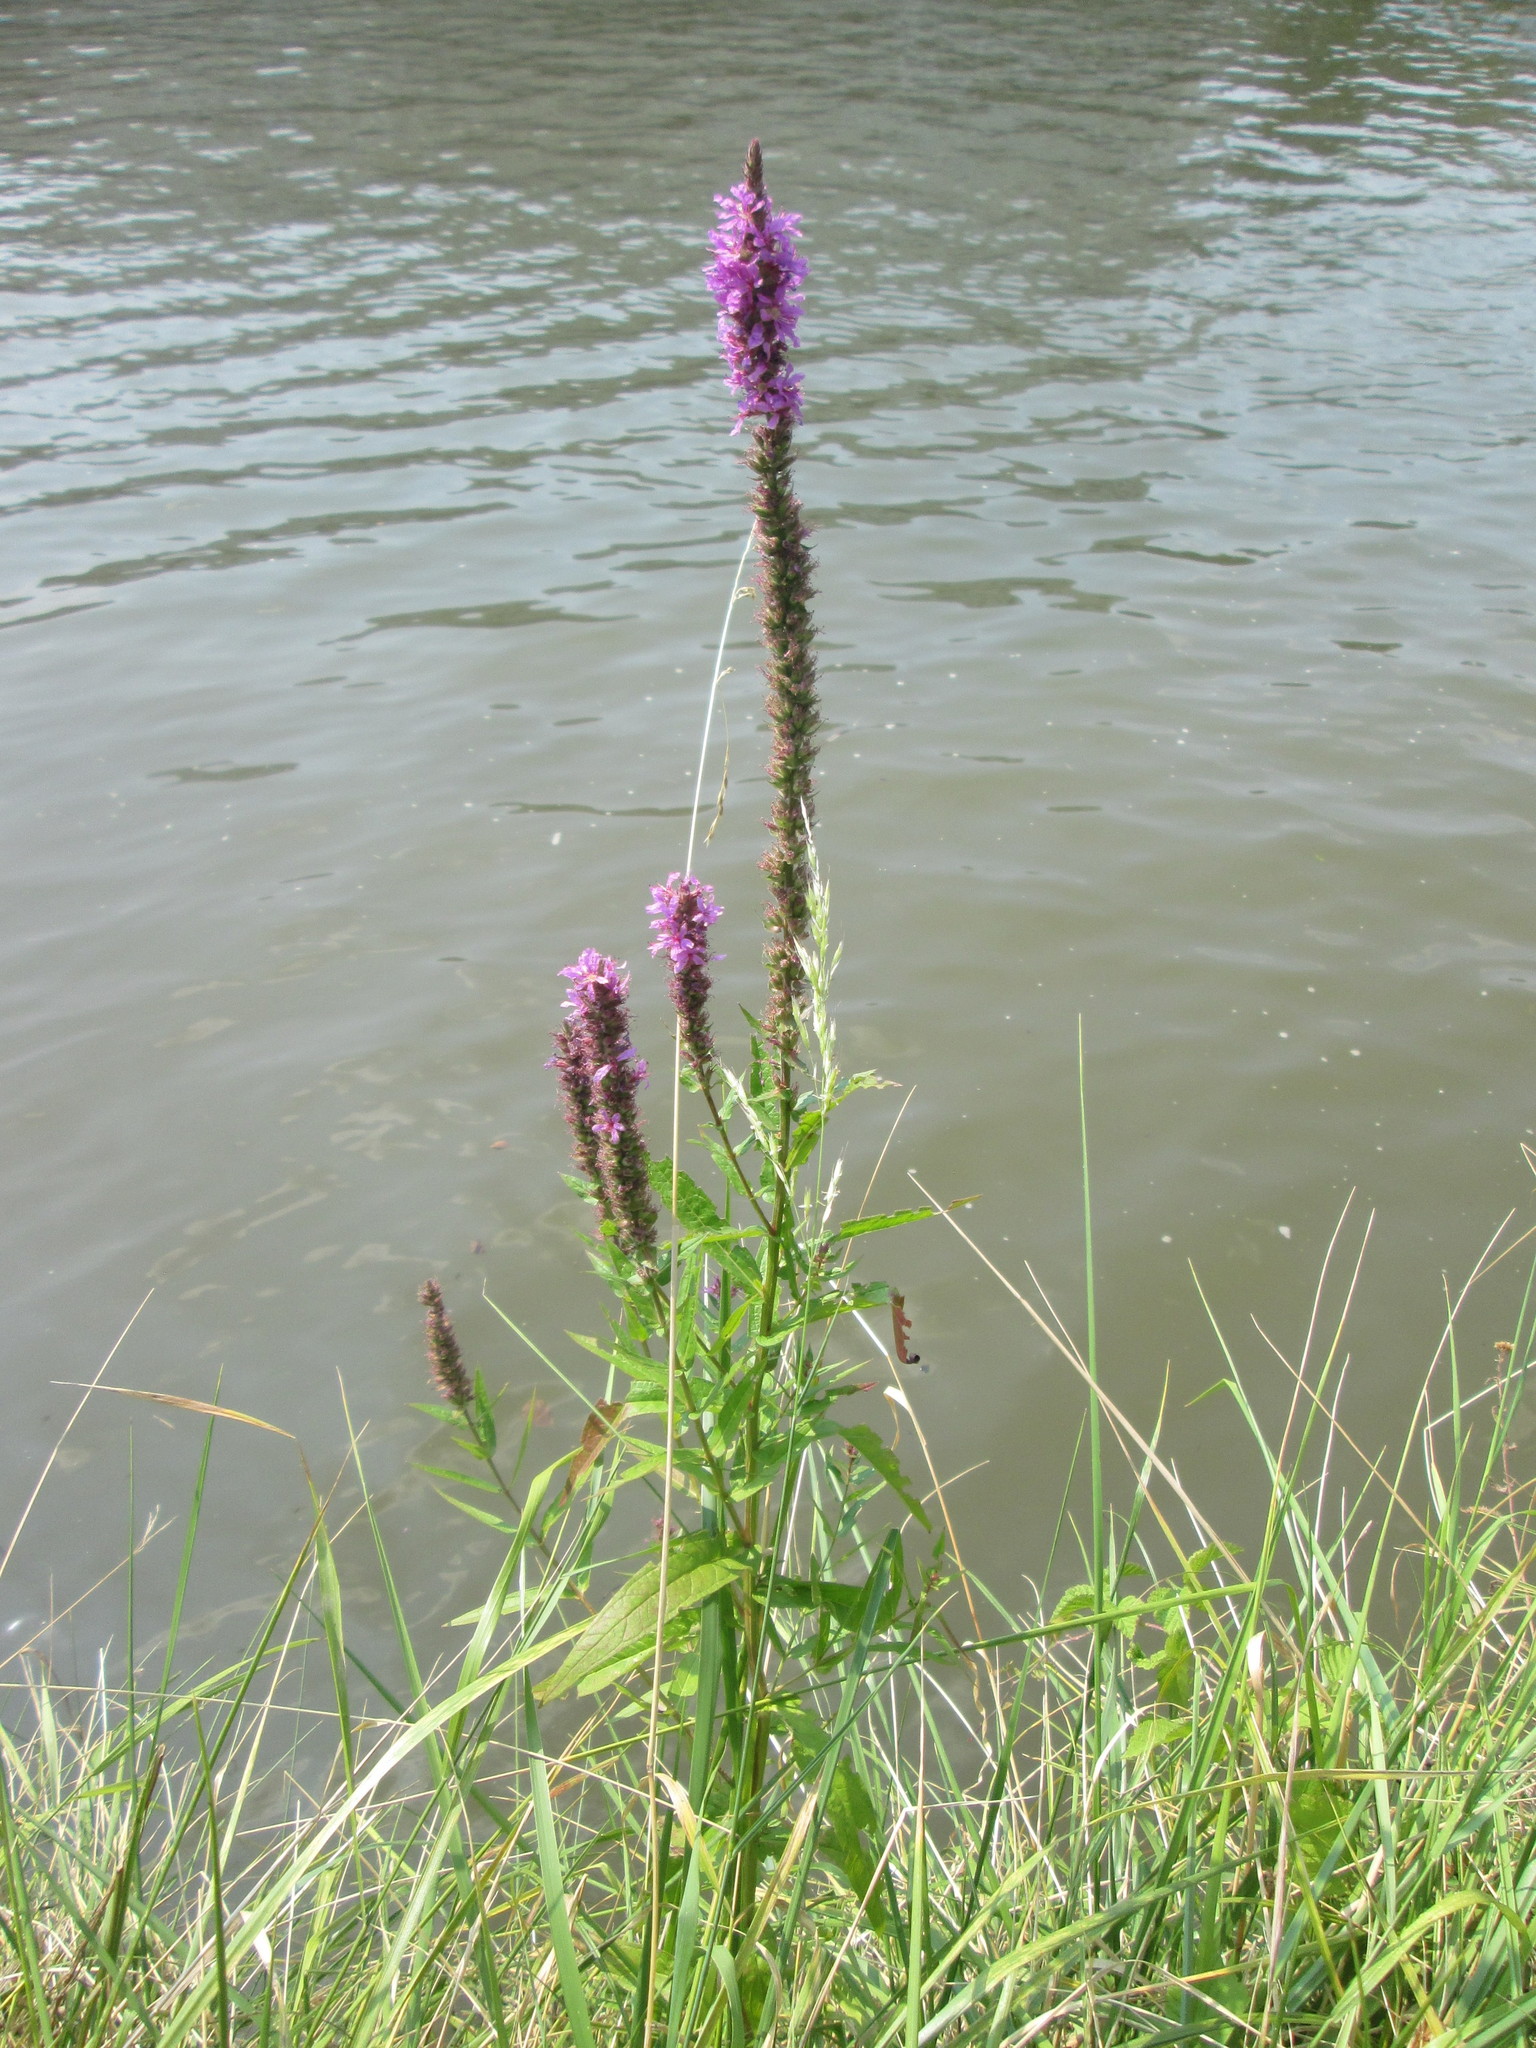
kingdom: Plantae
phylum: Tracheophyta
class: Magnoliopsida
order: Myrtales
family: Lythraceae
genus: Lythrum
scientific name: Lythrum salicaria
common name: Purple loosestrife
